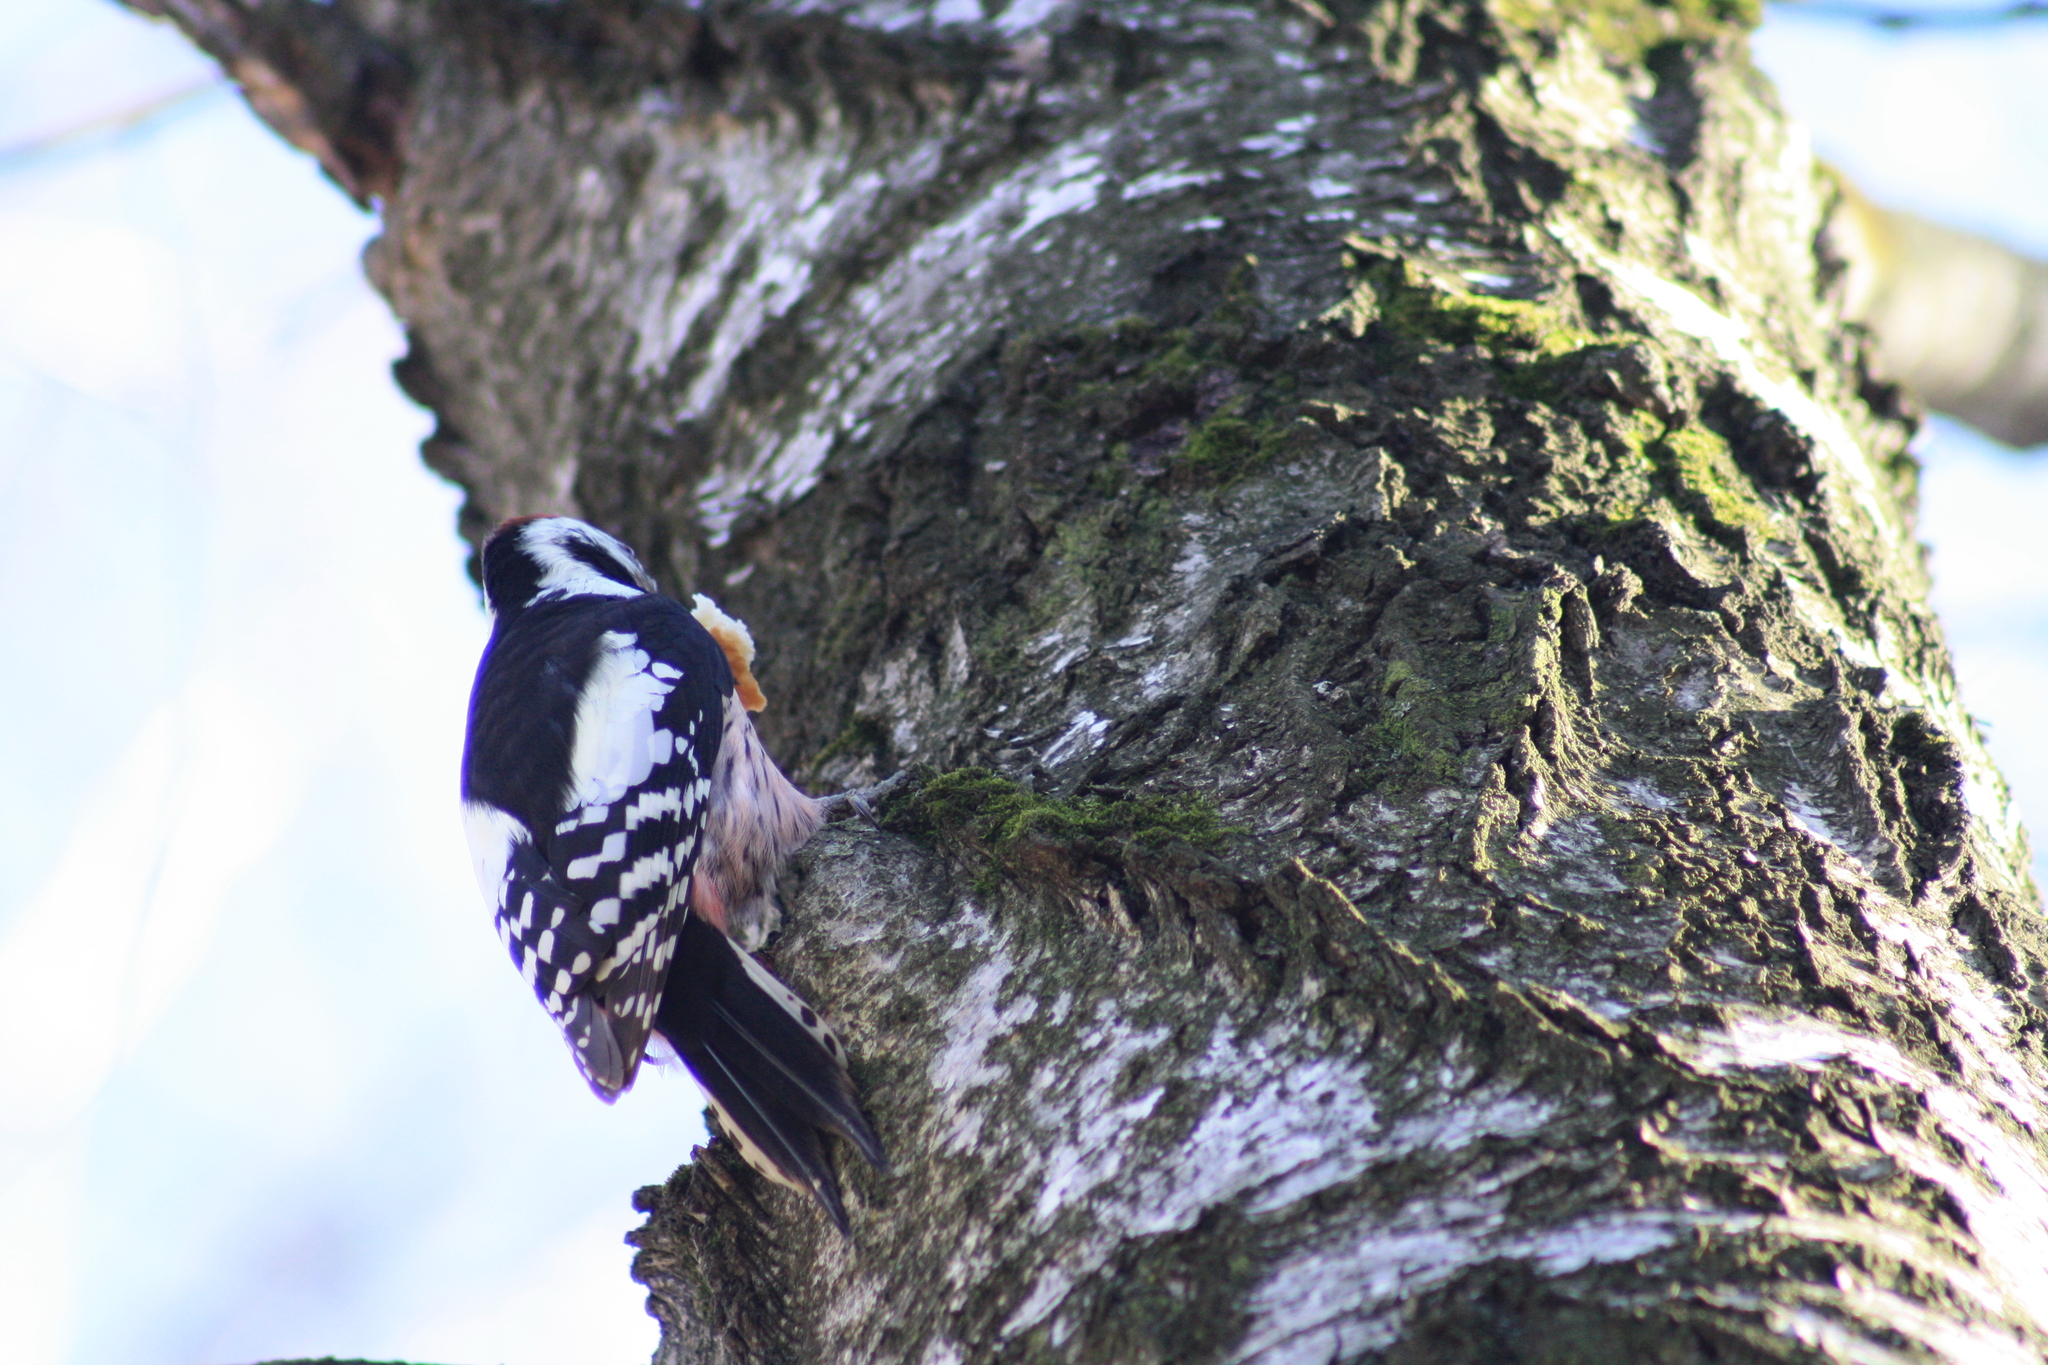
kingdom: Animalia
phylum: Chordata
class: Aves
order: Piciformes
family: Picidae
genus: Dendrocoptes
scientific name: Dendrocoptes medius
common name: Middle spotted woodpecker
